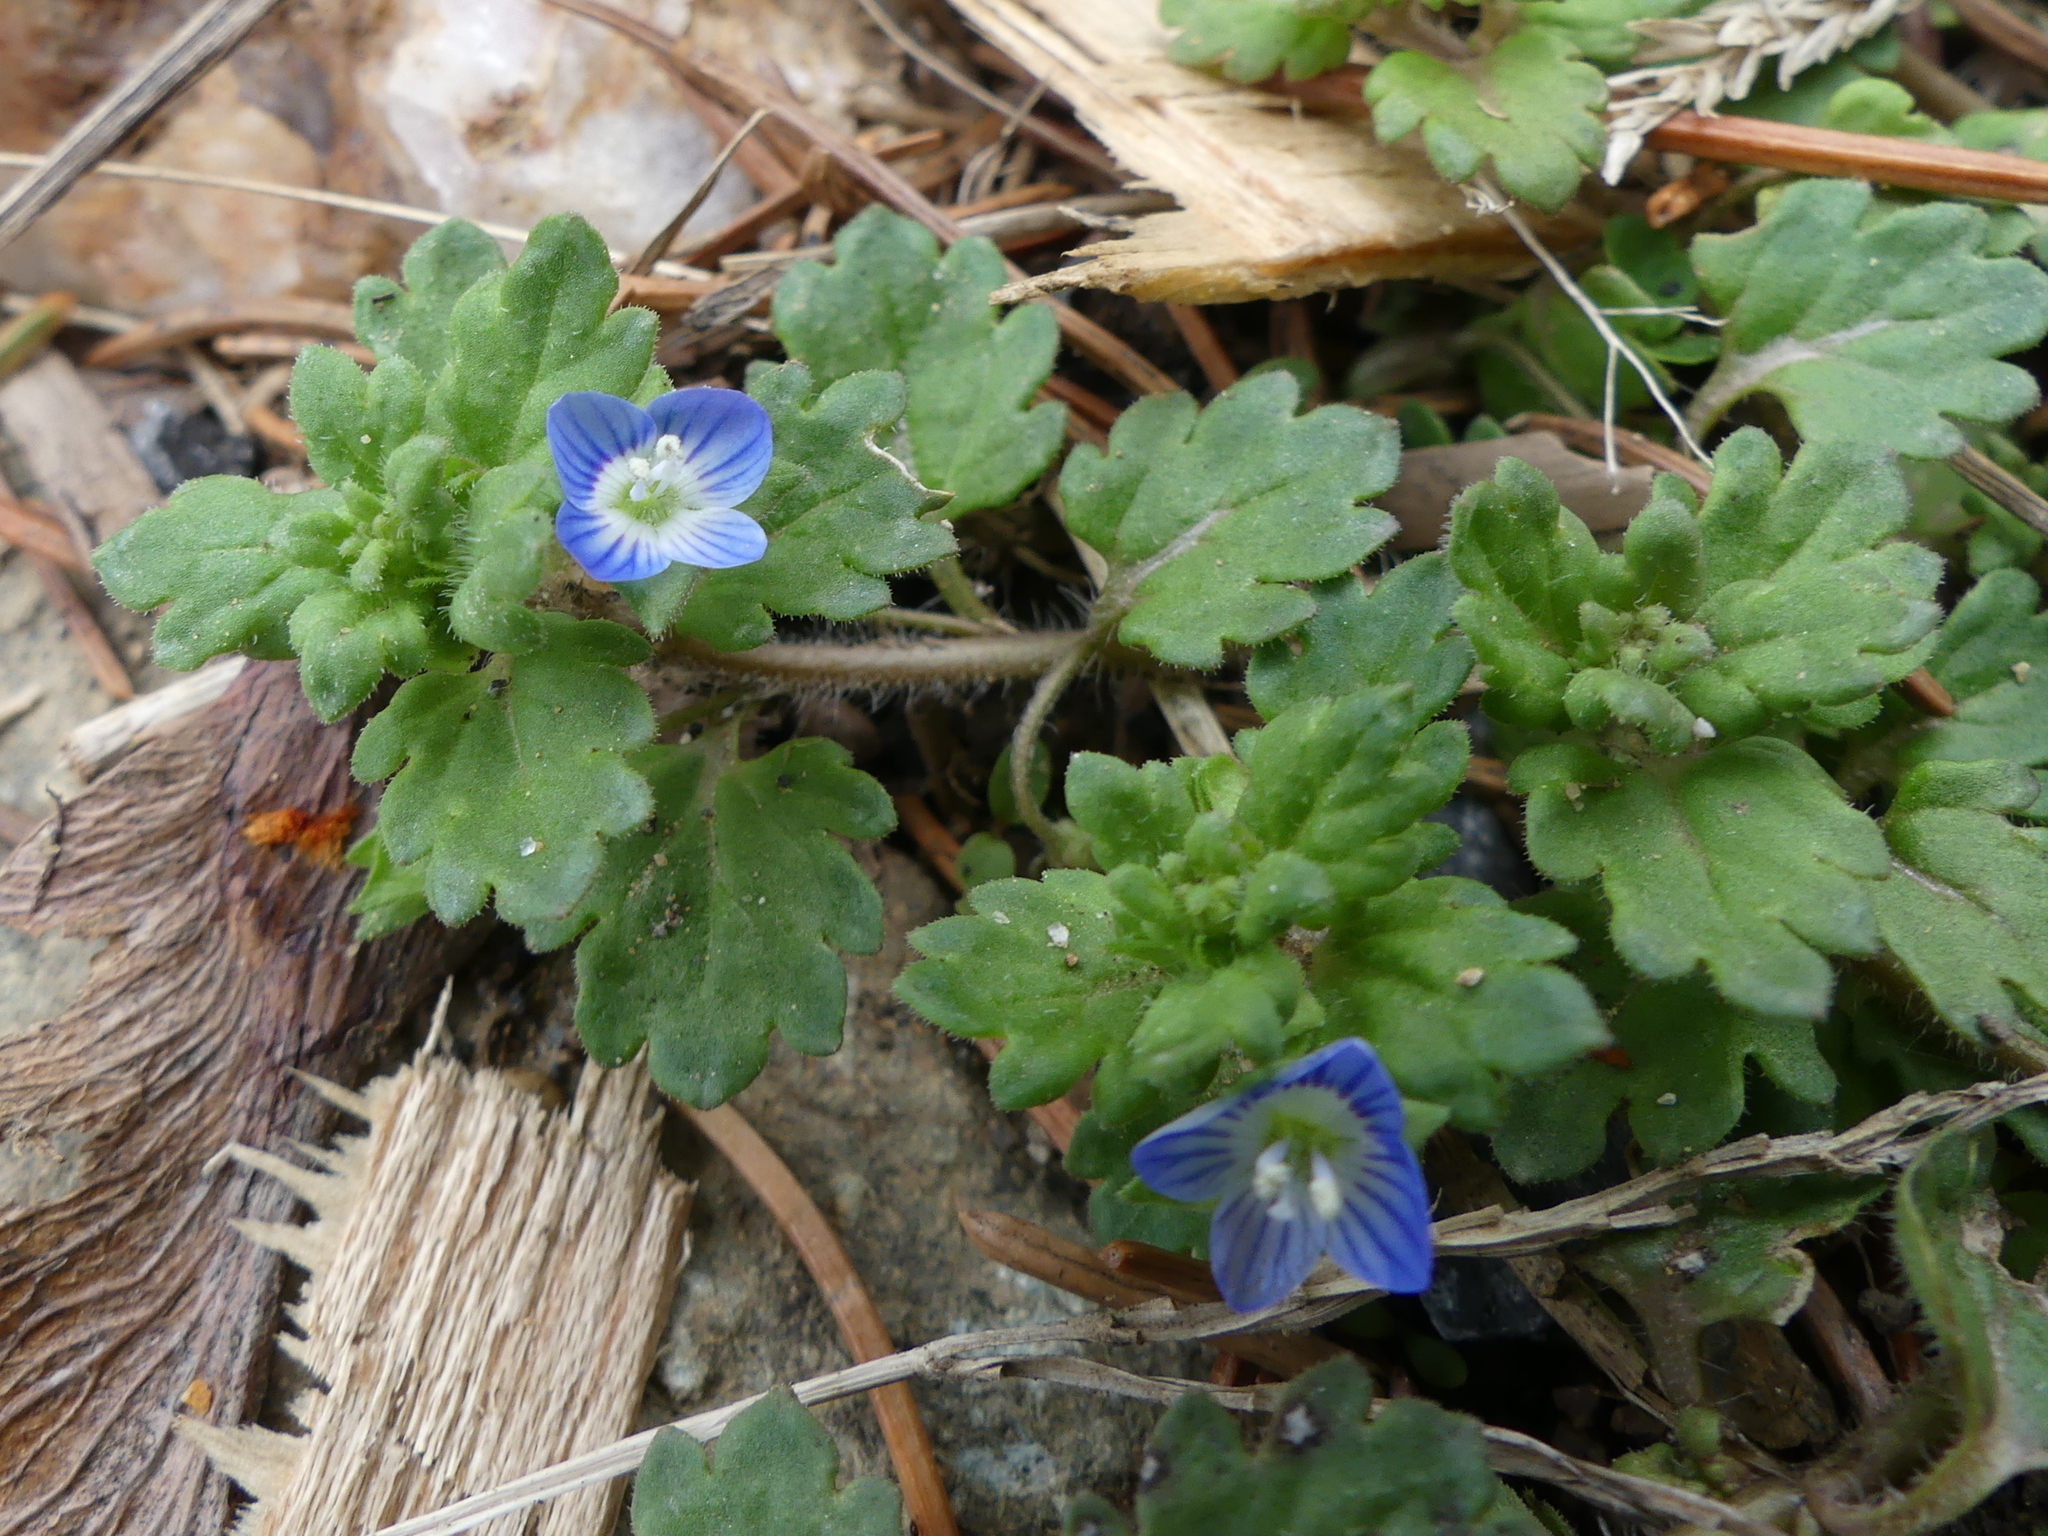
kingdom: Plantae
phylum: Tracheophyta
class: Magnoliopsida
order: Lamiales
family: Plantaginaceae
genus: Veronica
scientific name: Veronica polita
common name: Grey field-speedwell
